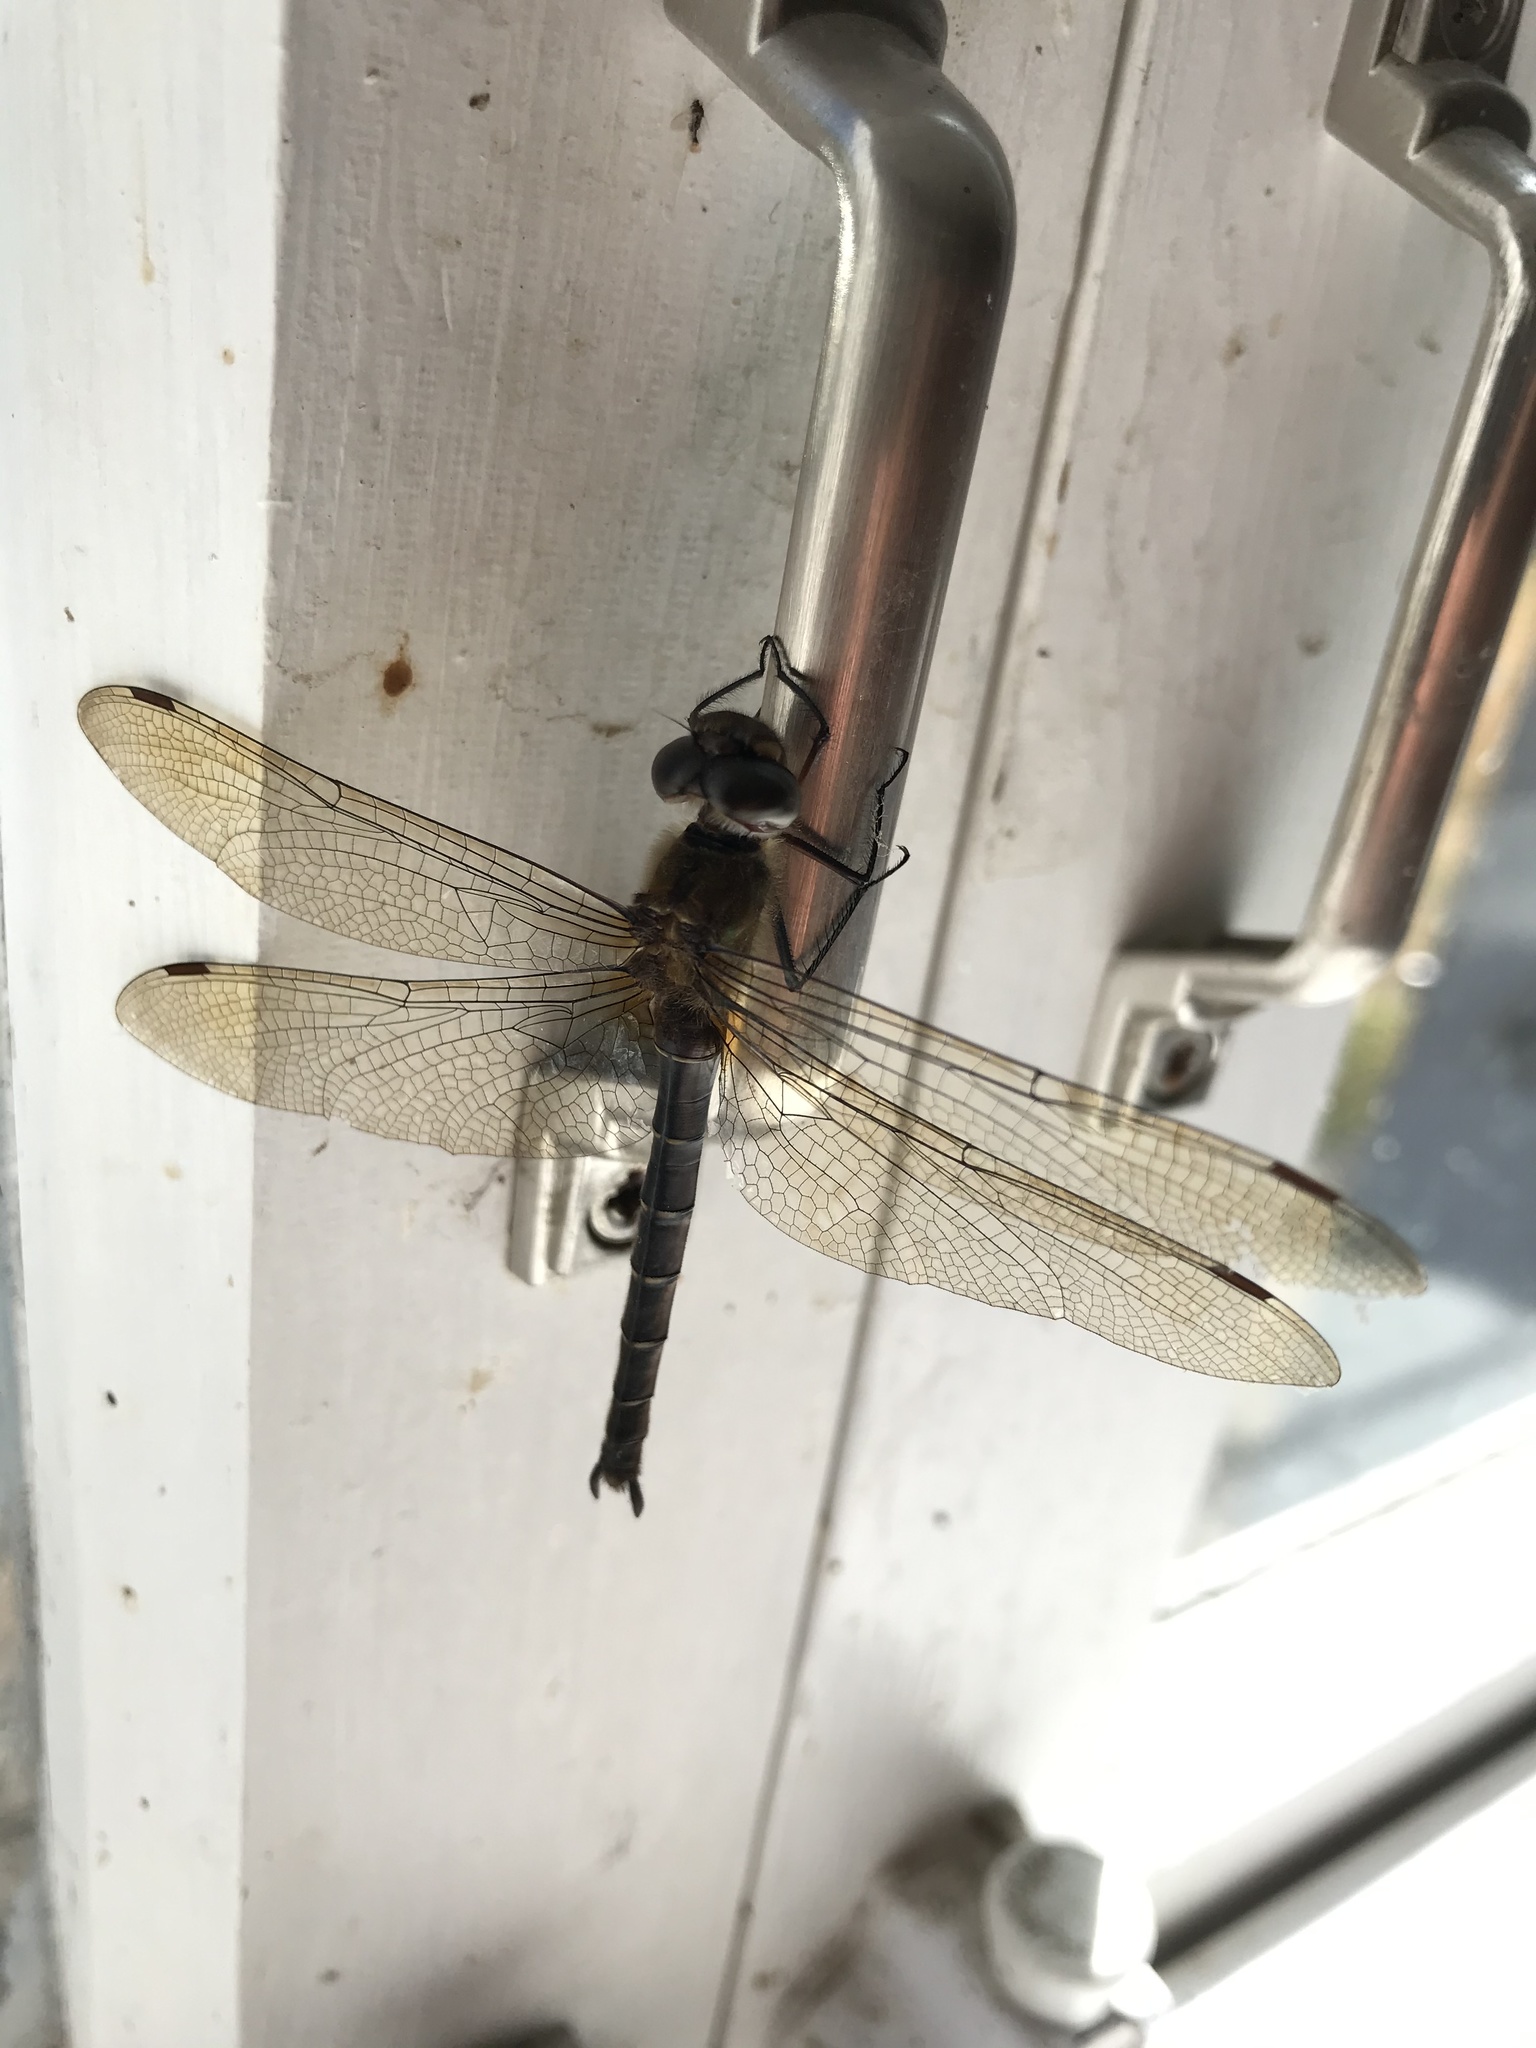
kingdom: Animalia
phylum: Arthropoda
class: Insecta
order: Odonata
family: Corduliidae
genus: Procordulia
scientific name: Procordulia smithii
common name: Ranger dragonfly
